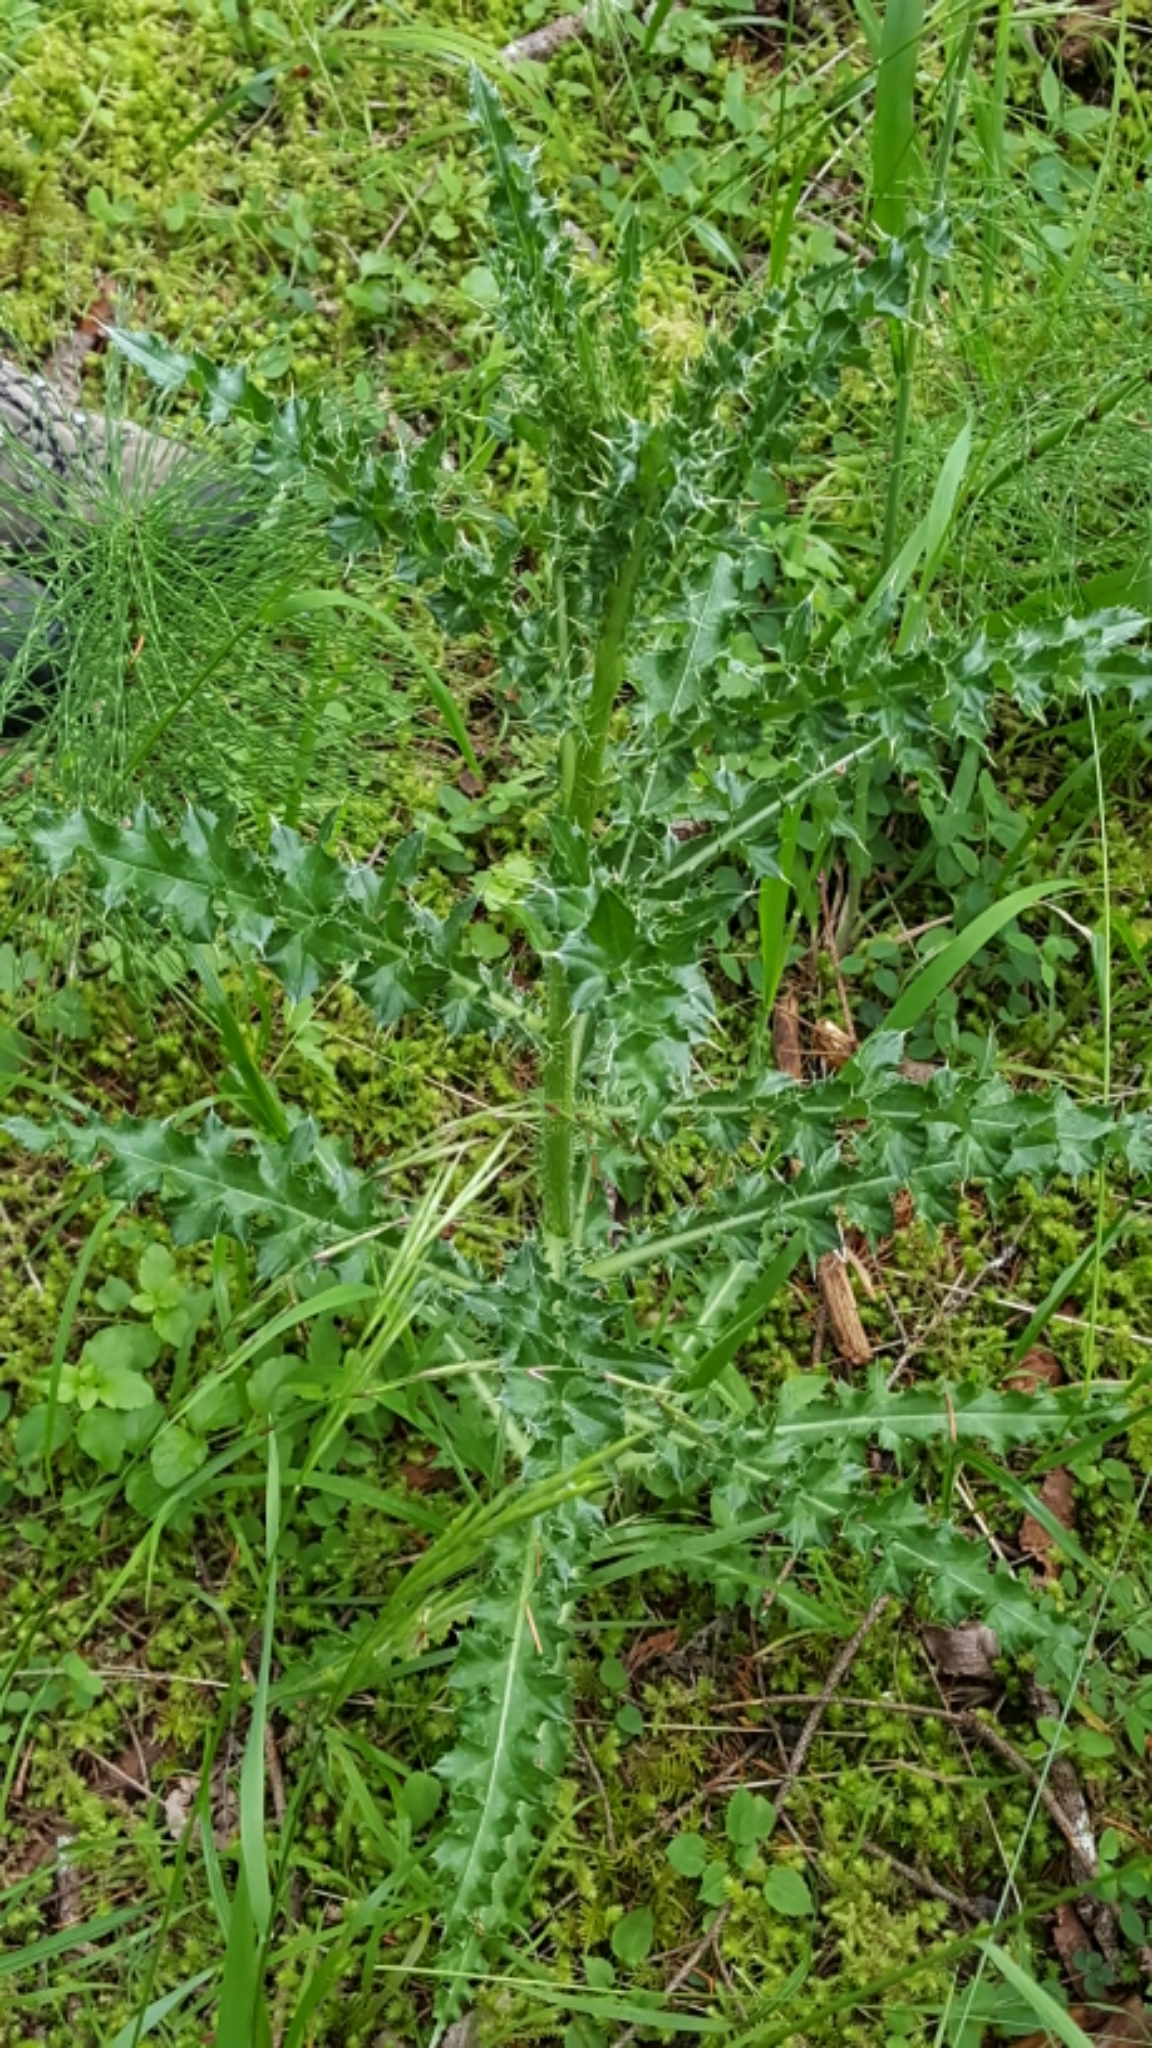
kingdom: Plantae
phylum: Tracheophyta
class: Magnoliopsida
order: Asterales
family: Asteraceae
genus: Cirsium
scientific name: Cirsium arvense
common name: Creeping thistle
